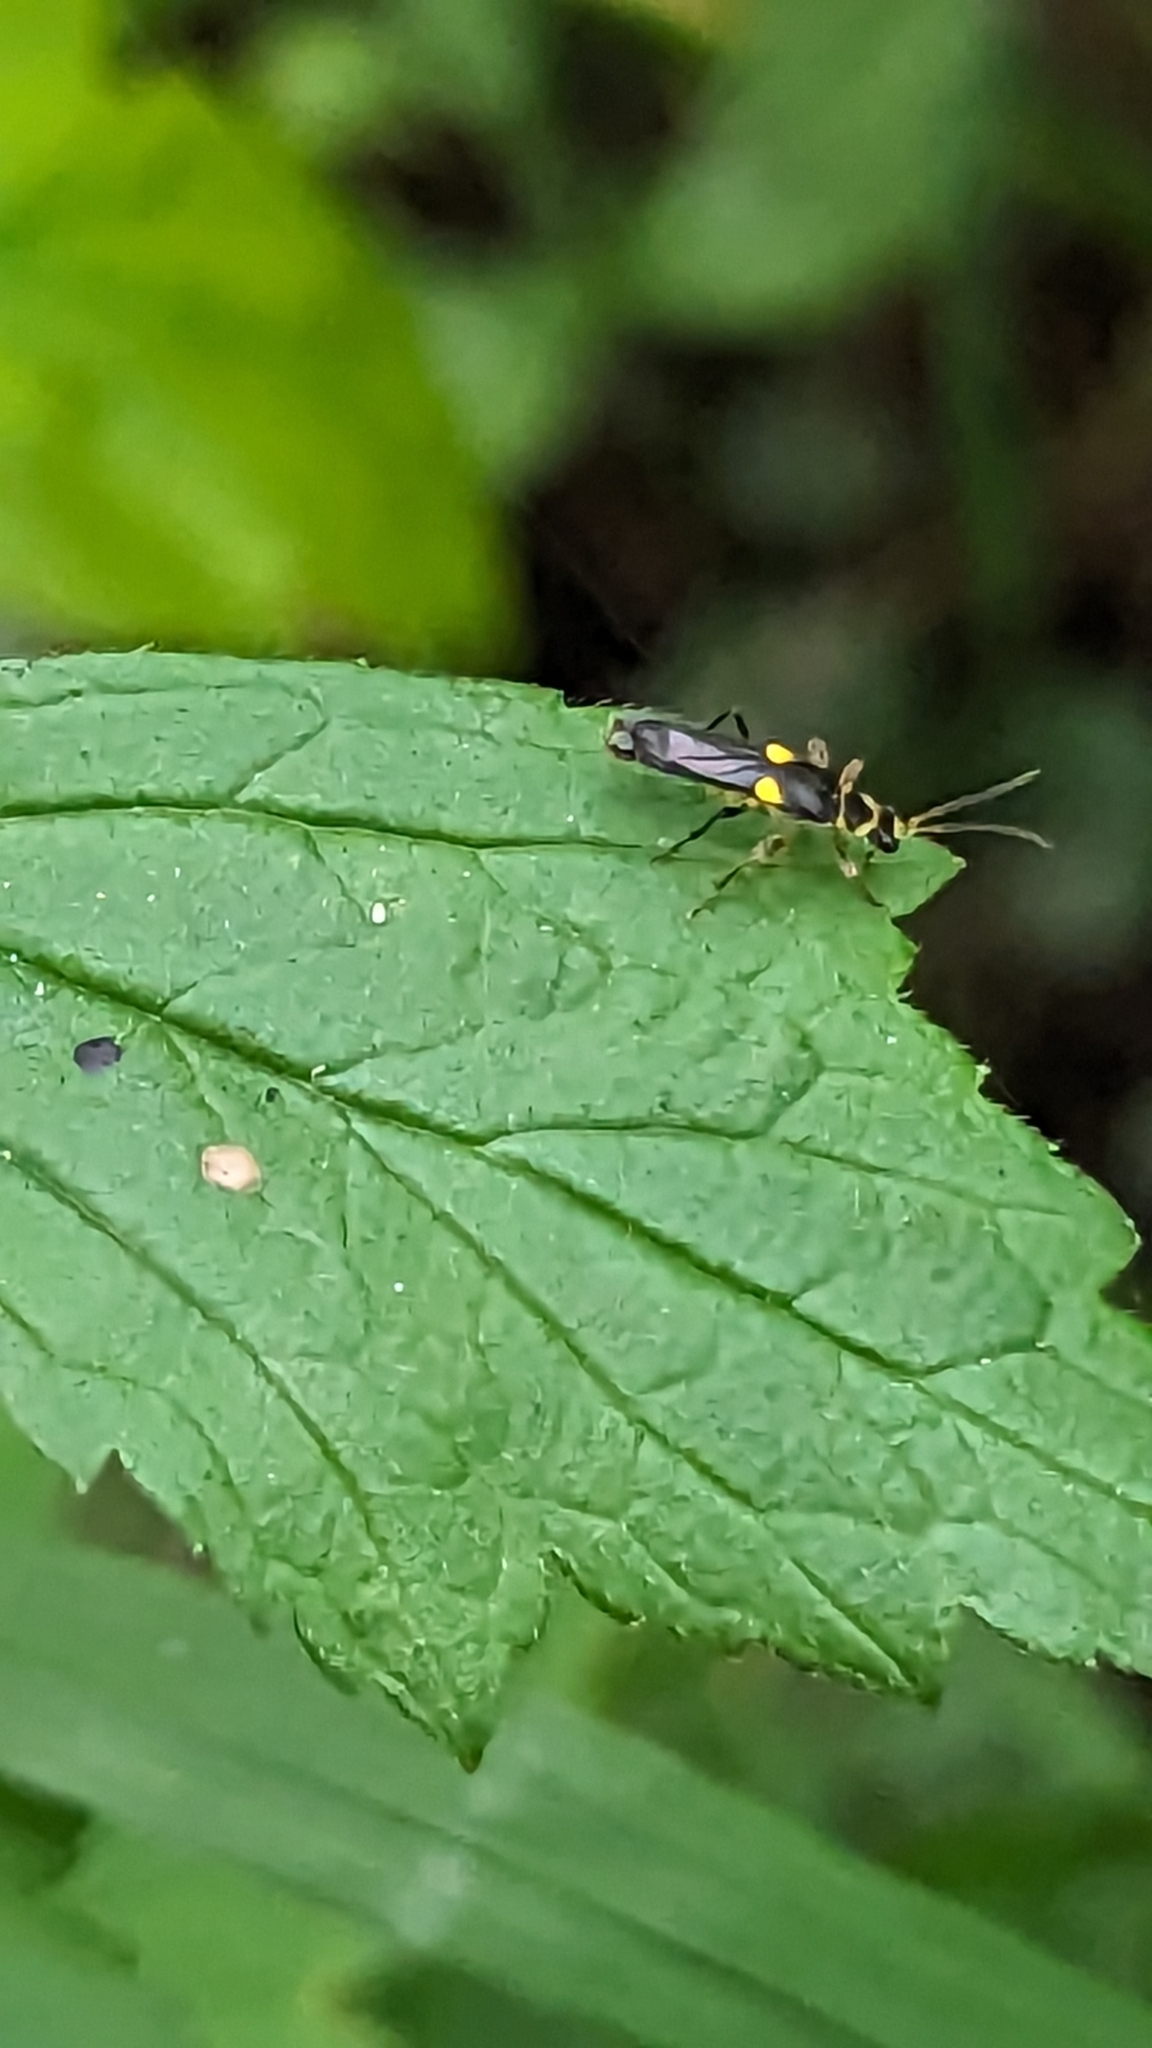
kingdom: Animalia
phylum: Arthropoda
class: Insecta
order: Coleoptera
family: Cantharidae
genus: Trypherus
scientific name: Trypherus frisoni
